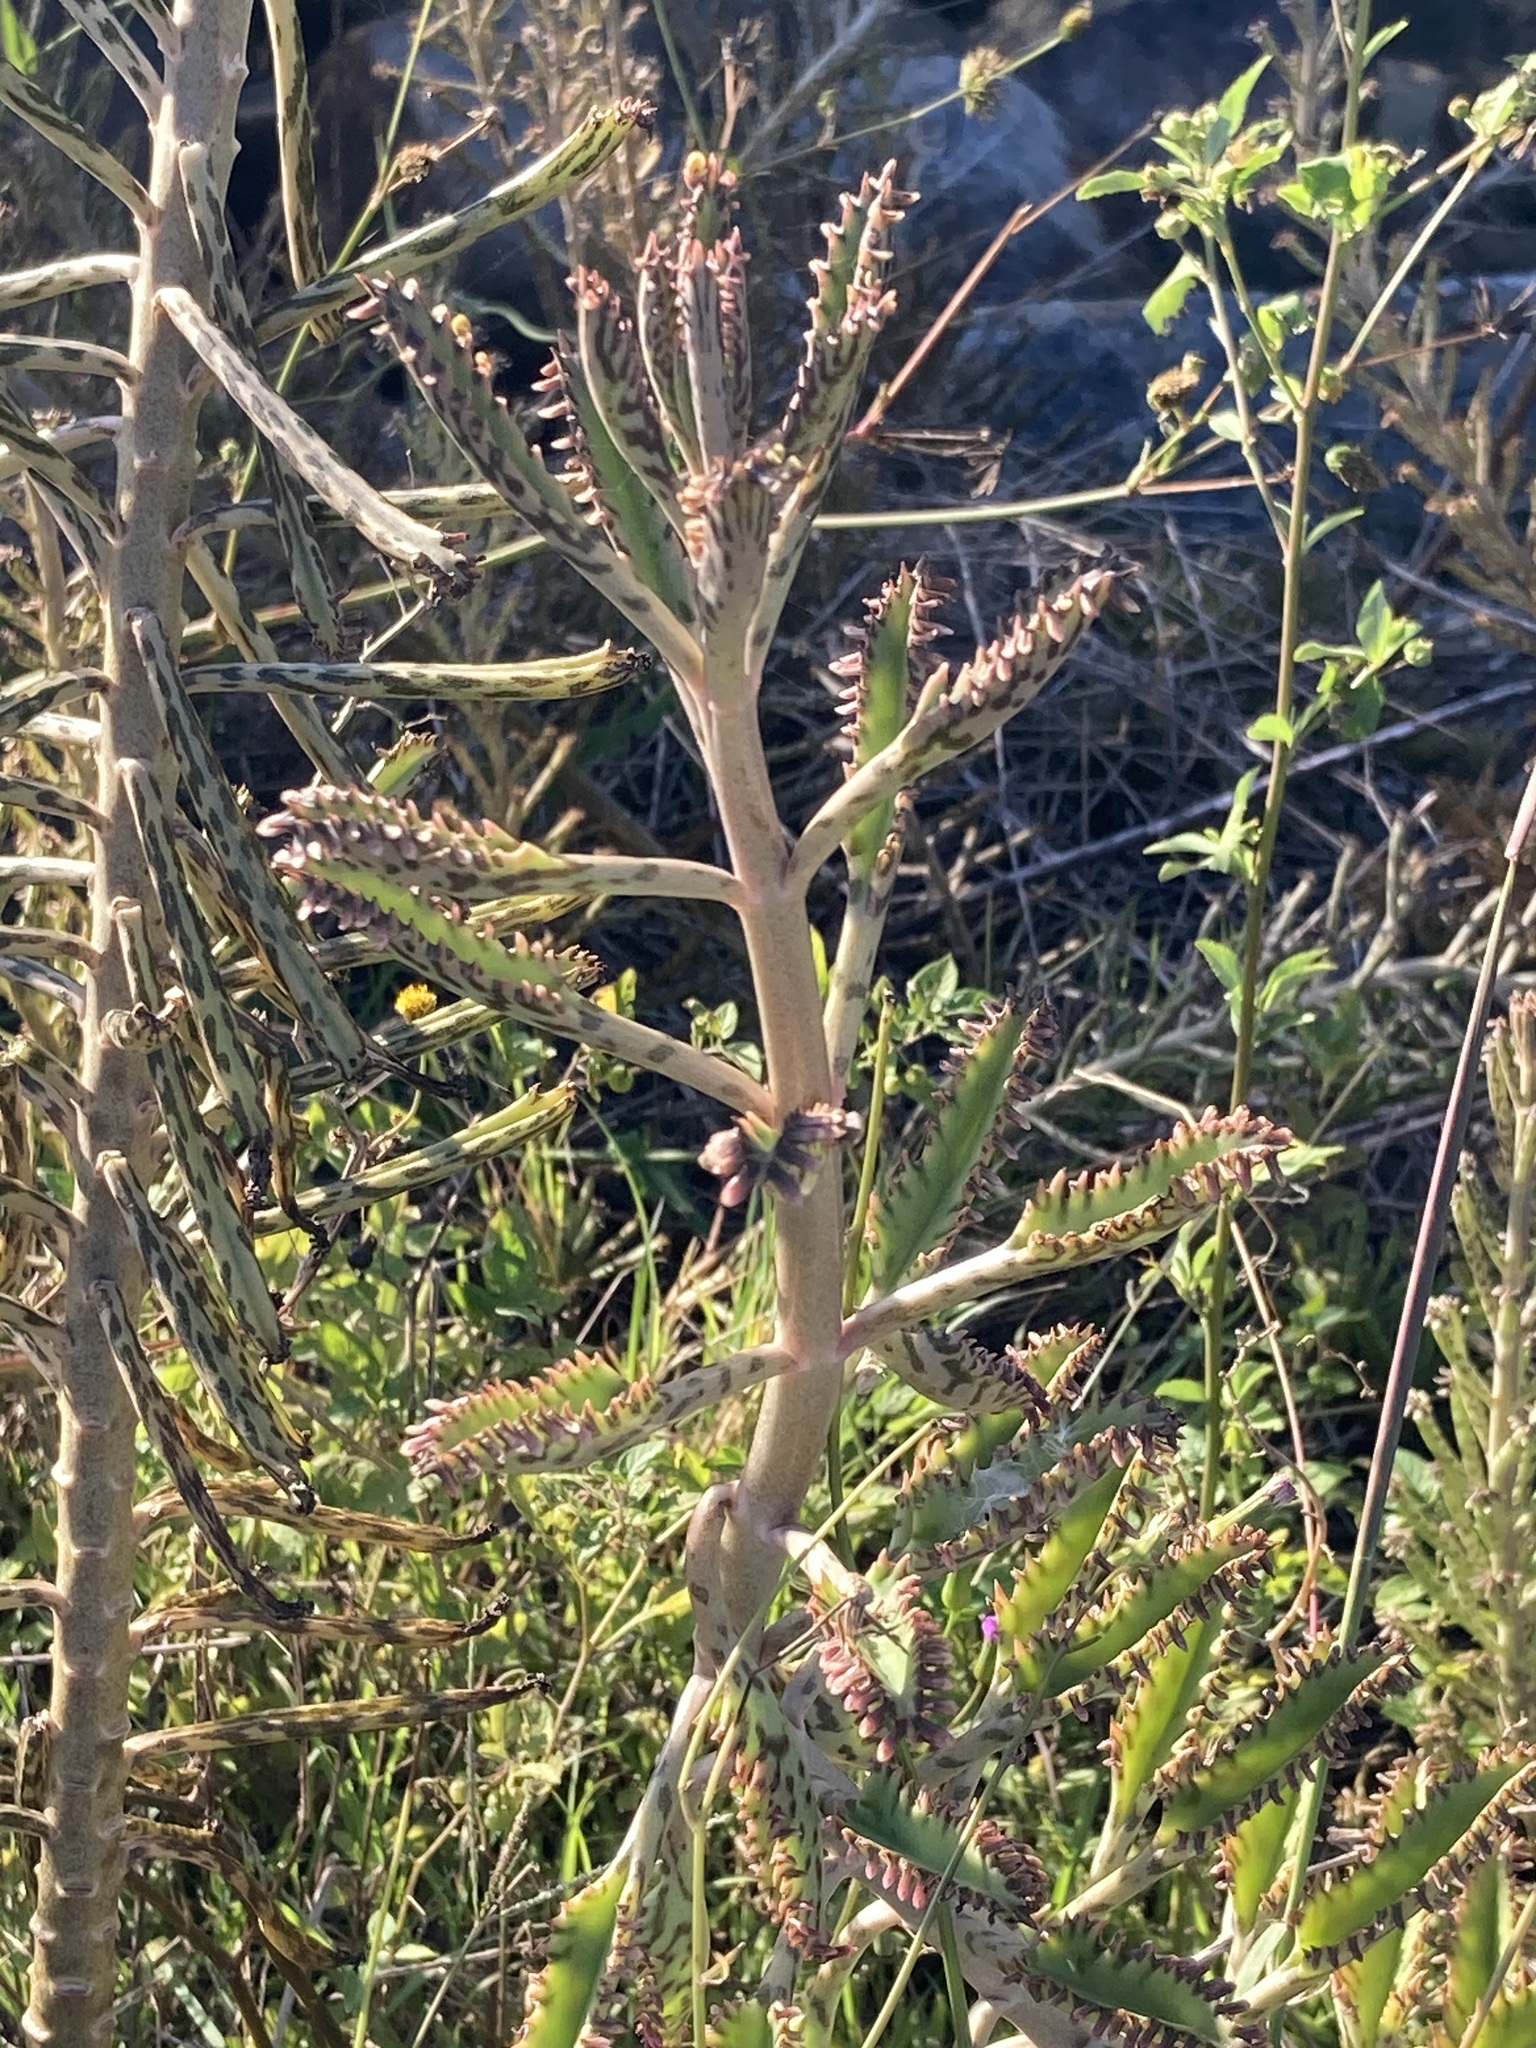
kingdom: Plantae
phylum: Tracheophyta
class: Magnoliopsida
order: Saxifragales
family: Crassulaceae
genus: Kalanchoe
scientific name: Kalanchoe houghtonii
